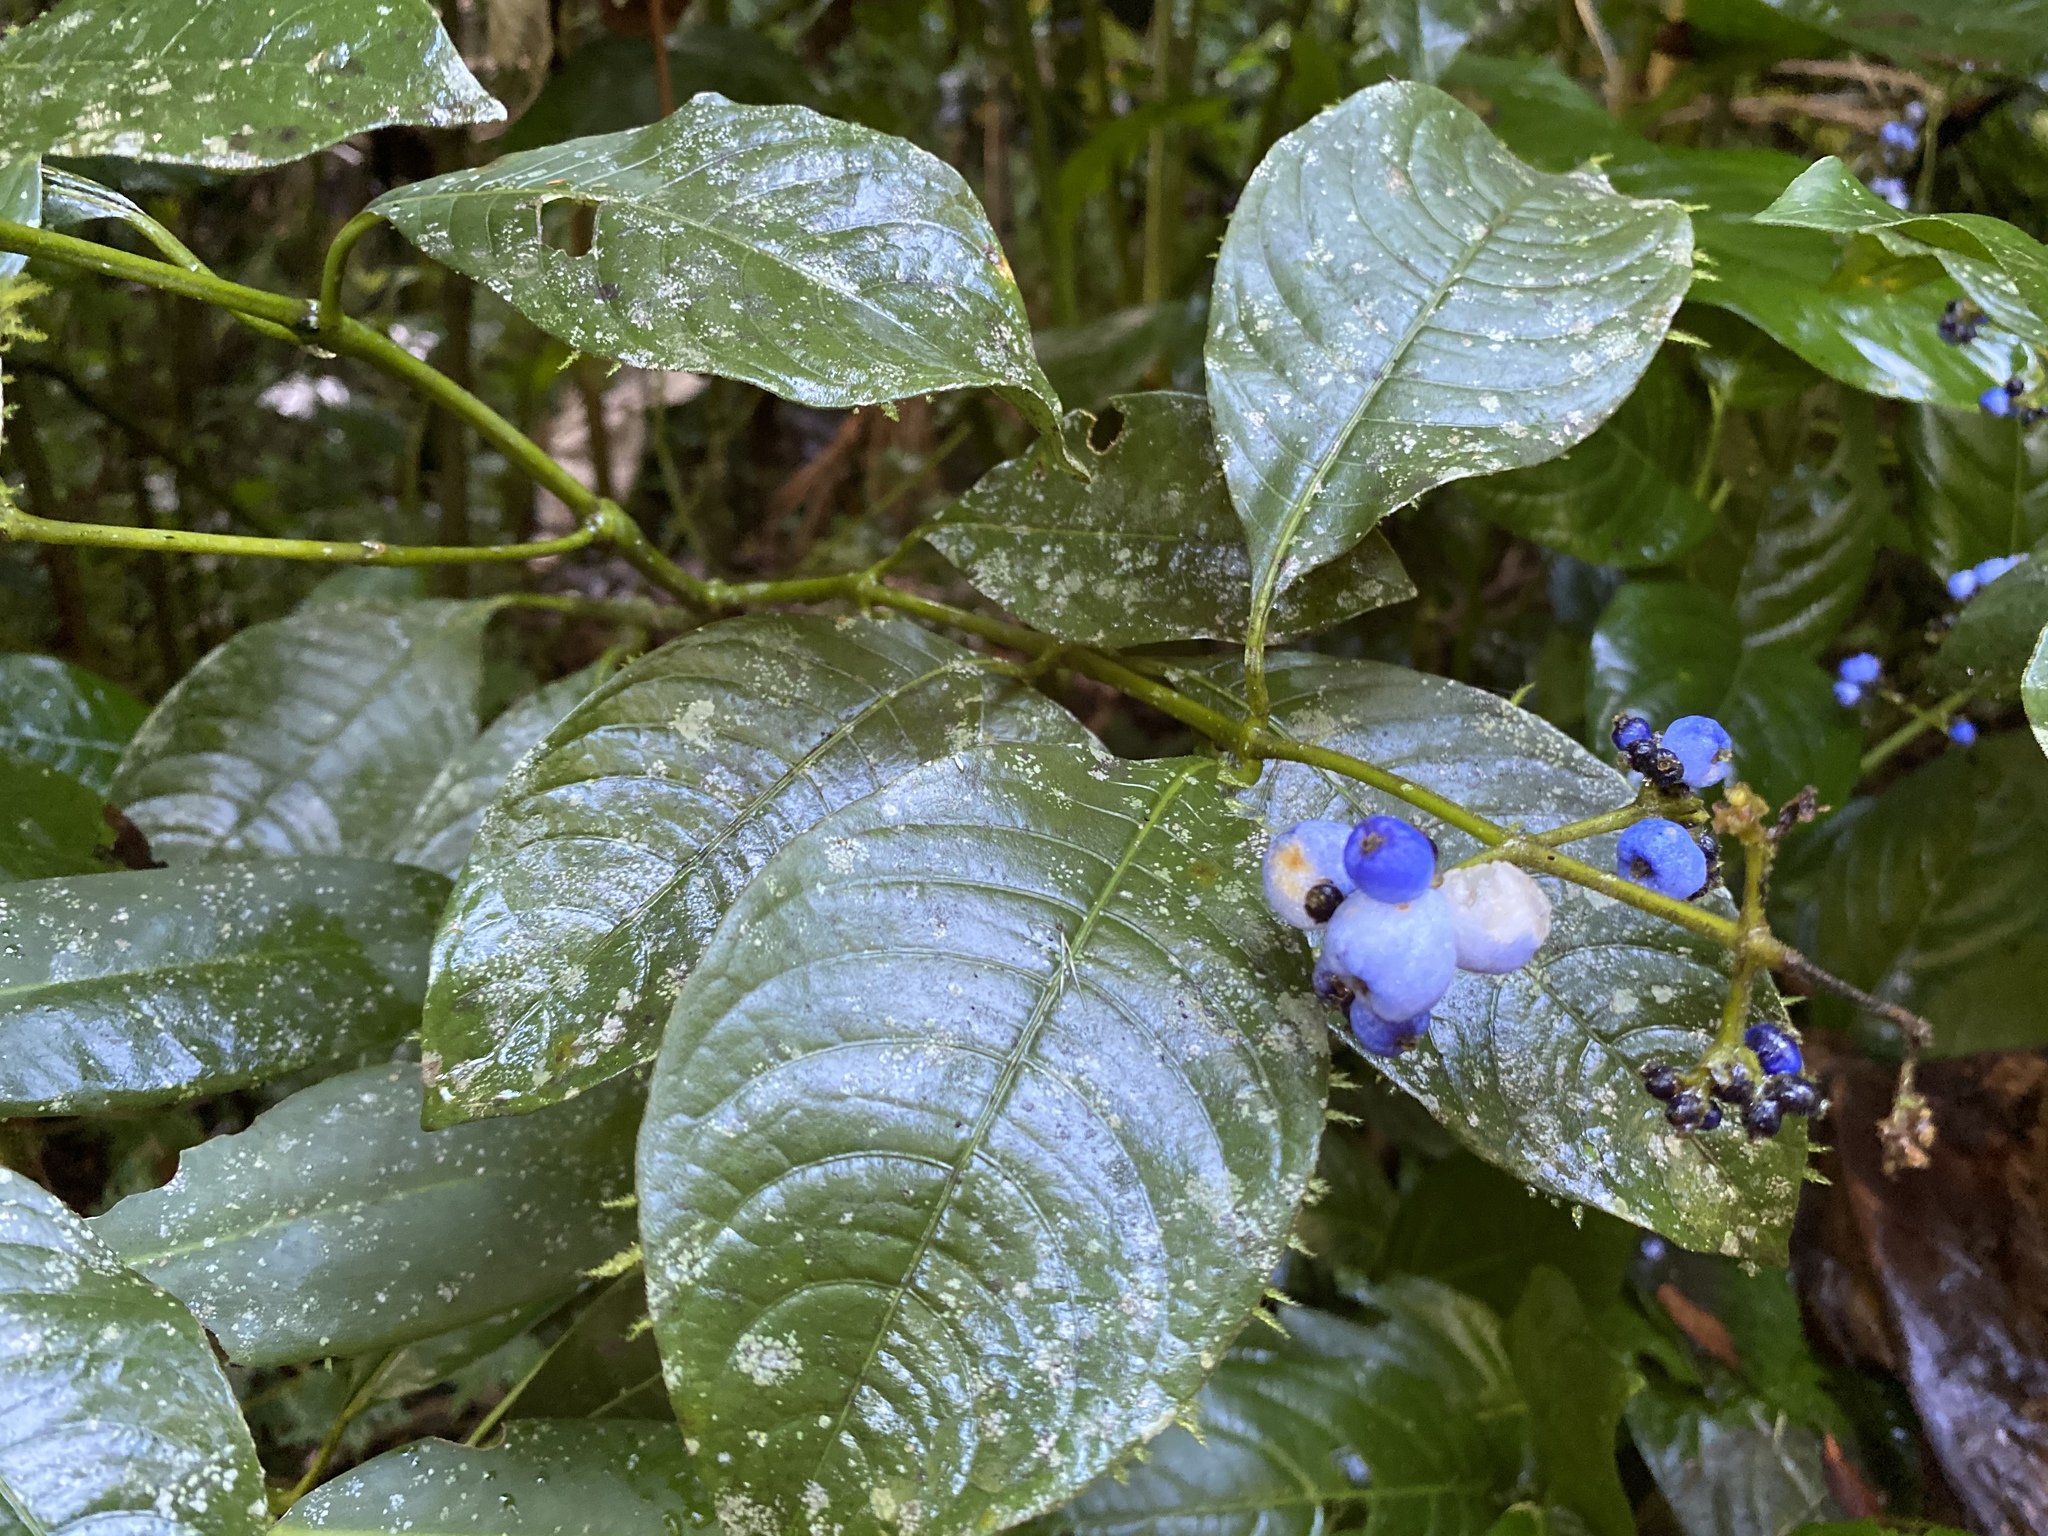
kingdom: Plantae
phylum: Tracheophyta
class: Magnoliopsida
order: Gentianales
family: Rubiaceae
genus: Palicourea
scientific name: Palicourea brachiata
